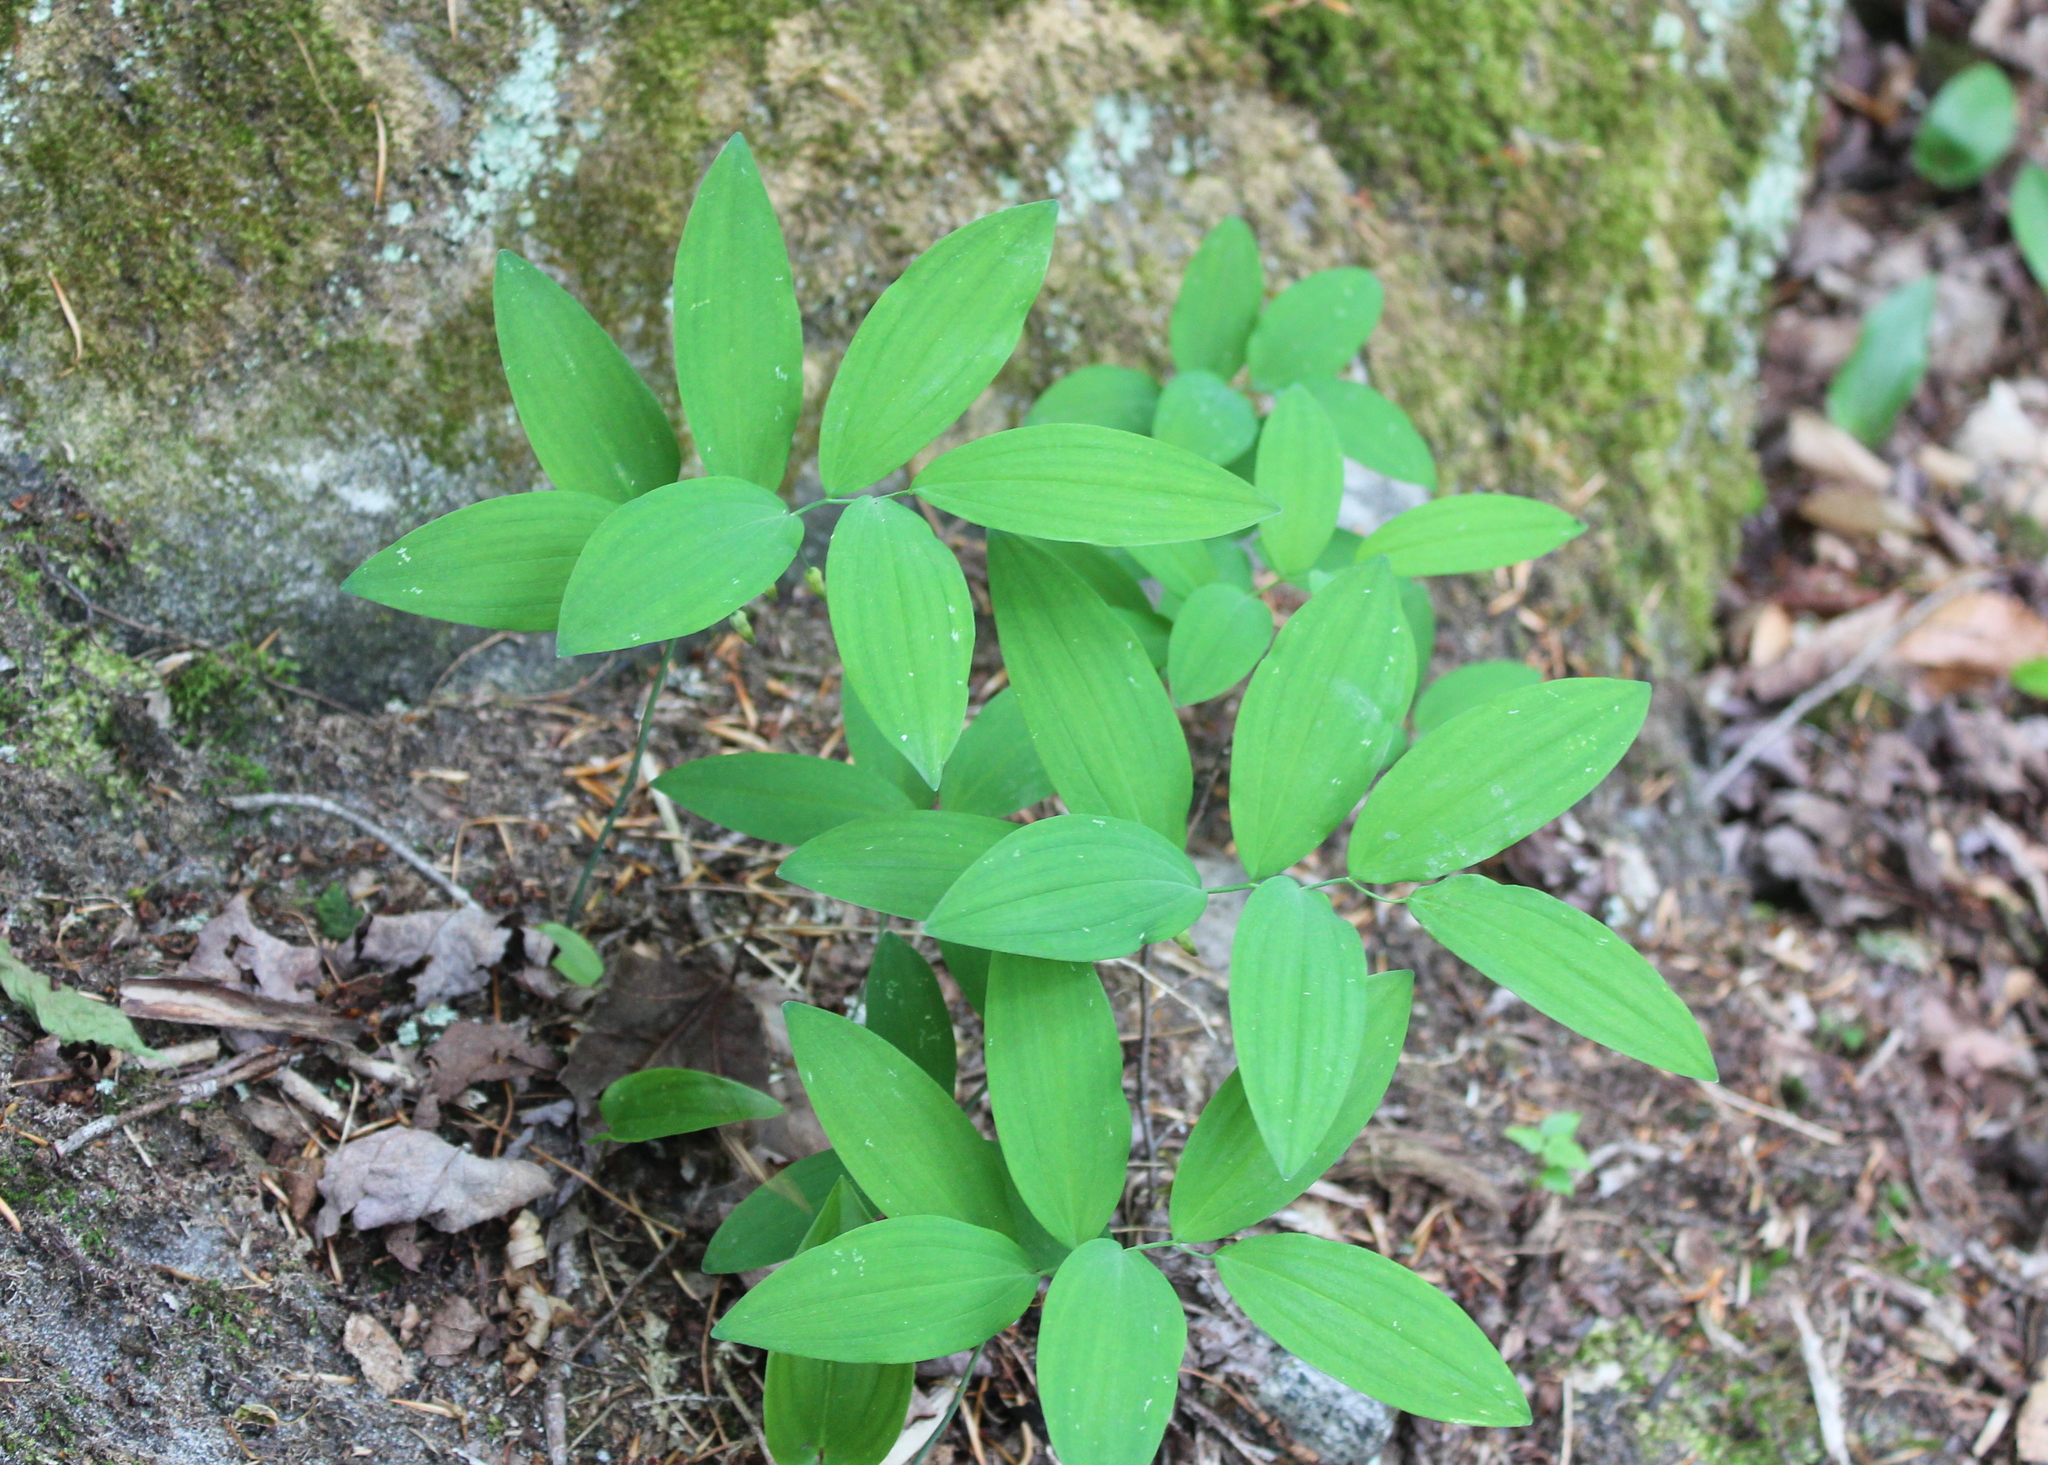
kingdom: Plantae
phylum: Tracheophyta
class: Liliopsida
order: Asparagales
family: Asparagaceae
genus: Polygonatum
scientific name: Polygonatum pubescens
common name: Downy solomon's seal
